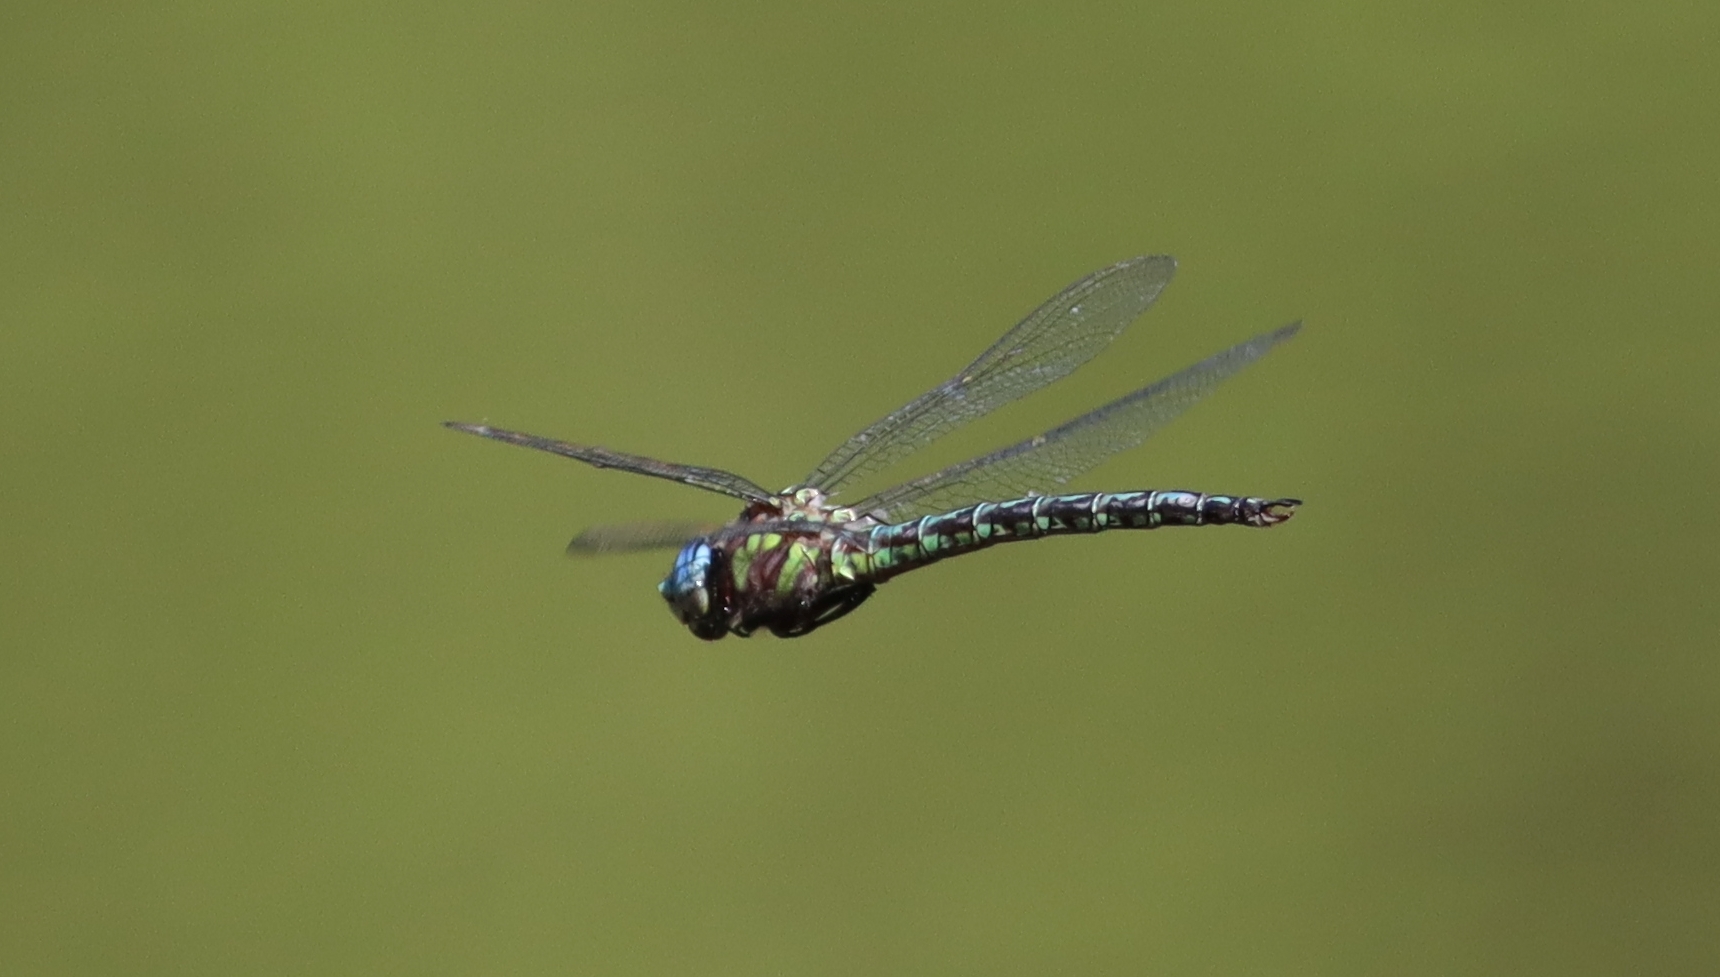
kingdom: Animalia
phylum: Arthropoda
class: Insecta
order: Odonata
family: Aeshnidae
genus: Nasiaeschna
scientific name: Nasiaeschna pentacantha
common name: Cyrano darner
